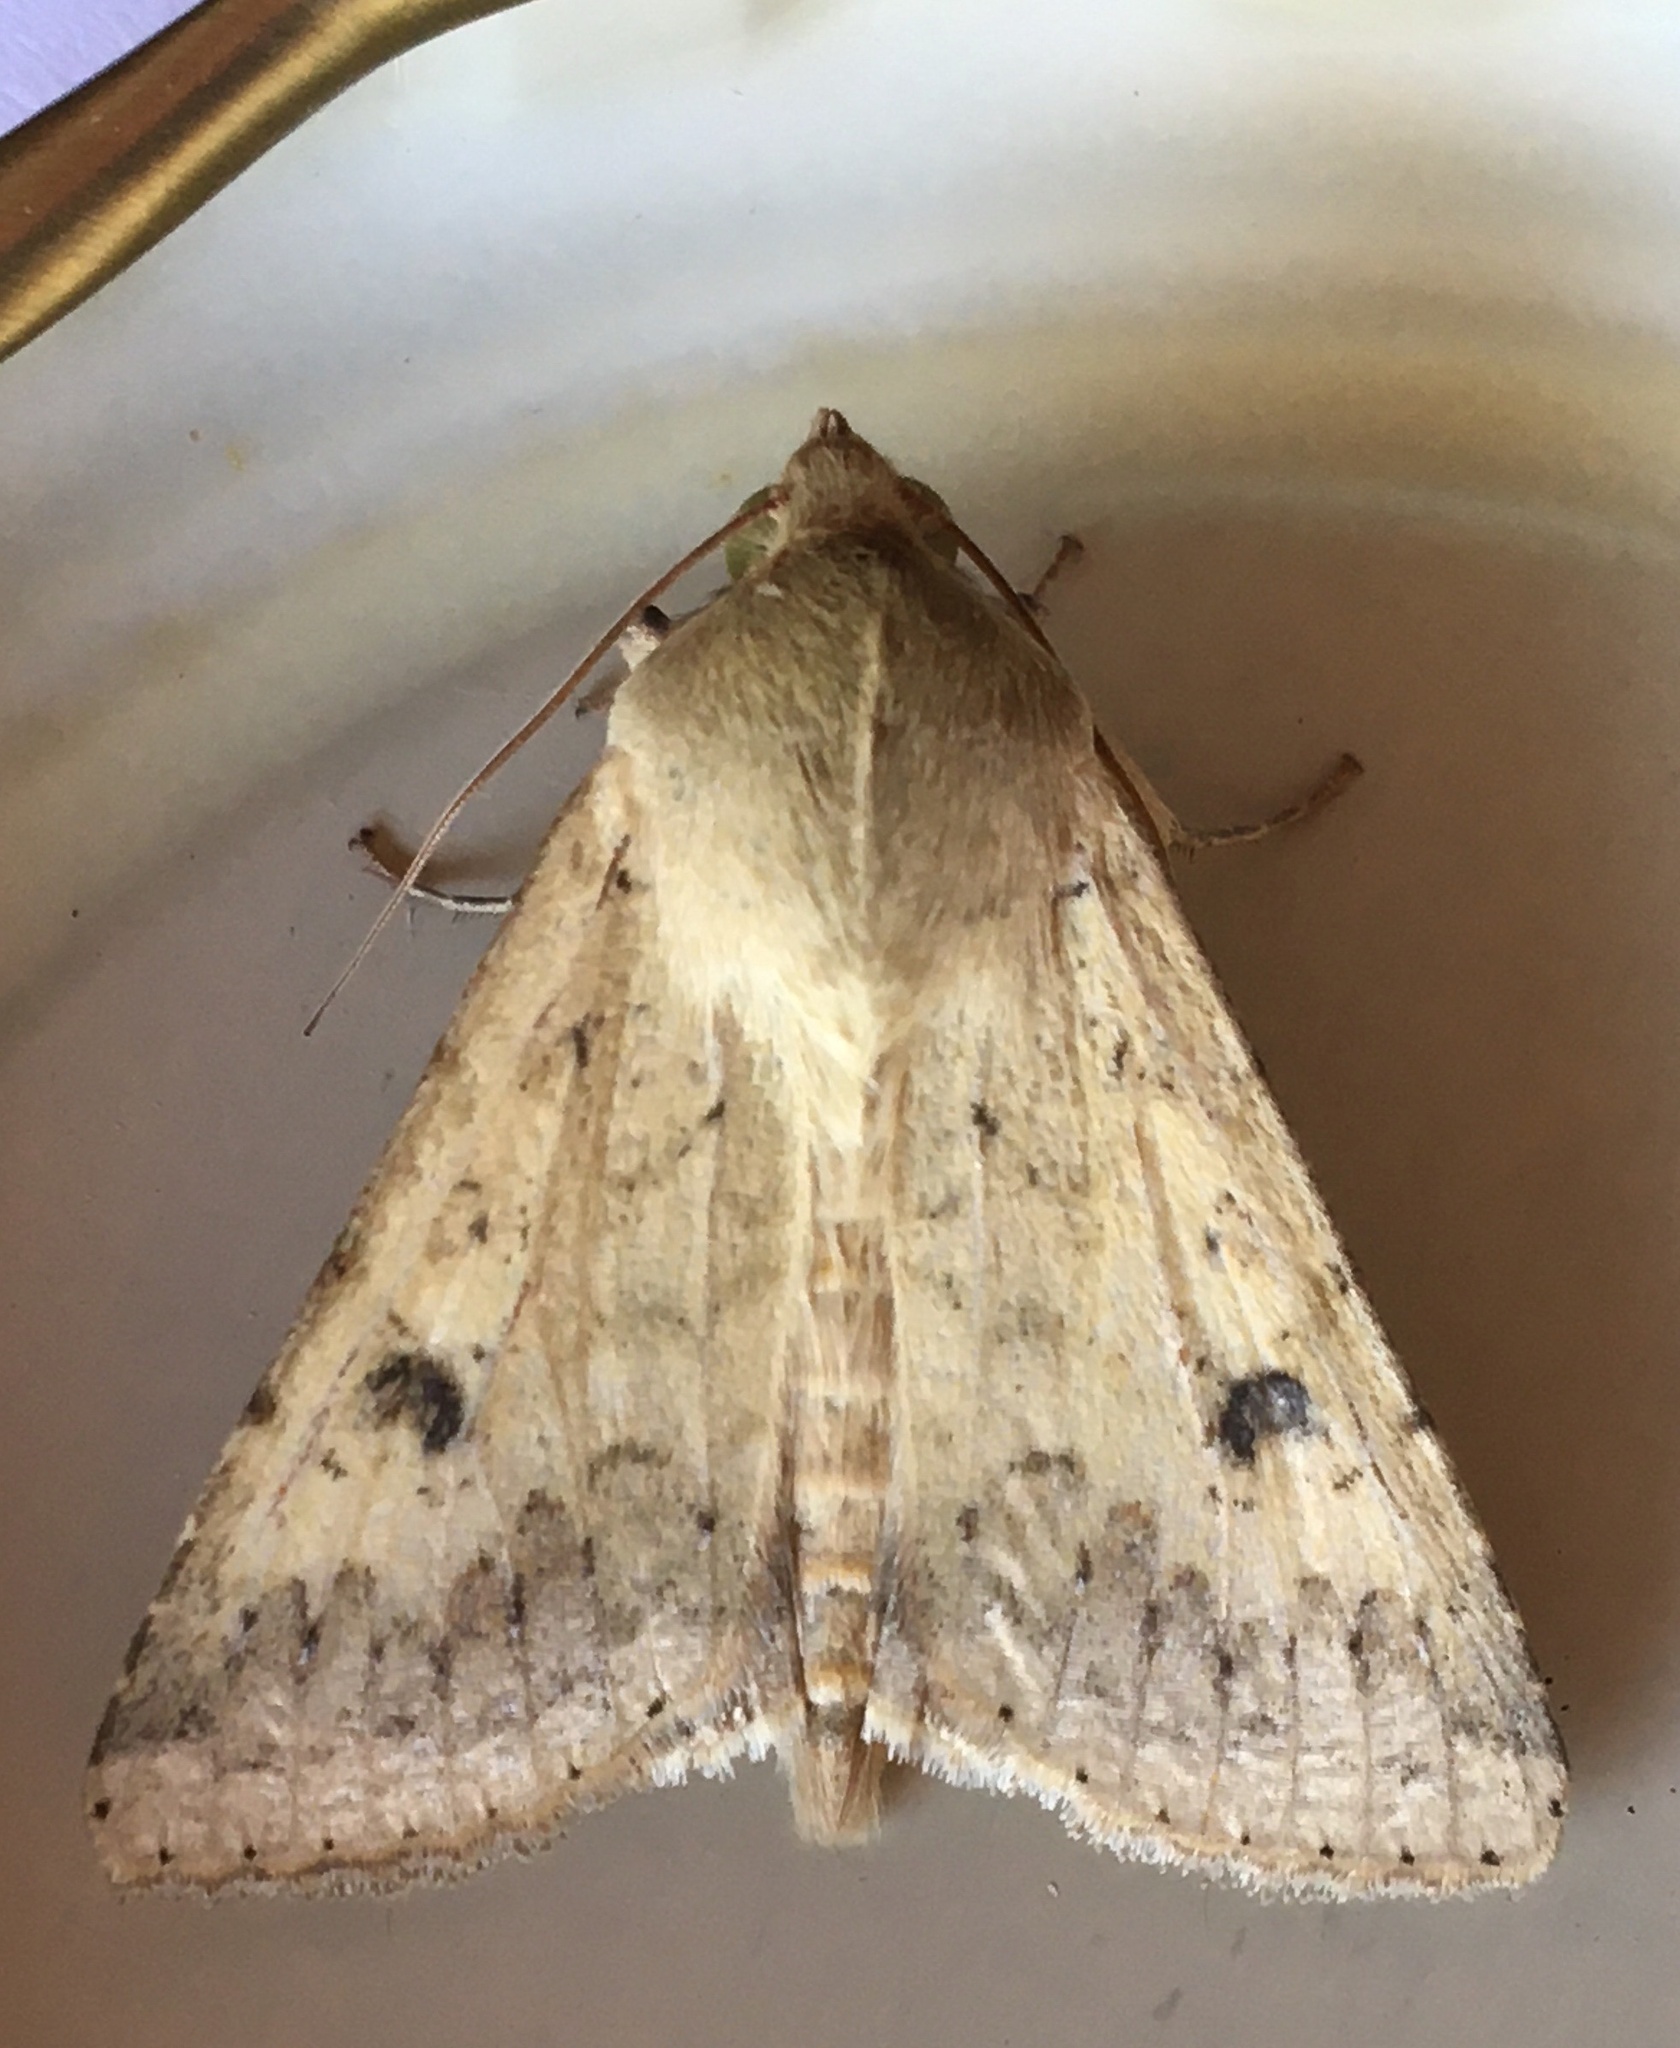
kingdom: Animalia
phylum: Arthropoda
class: Insecta
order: Lepidoptera
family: Noctuidae
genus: Helicoverpa
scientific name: Helicoverpa armigera
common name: Cotton bollworm
